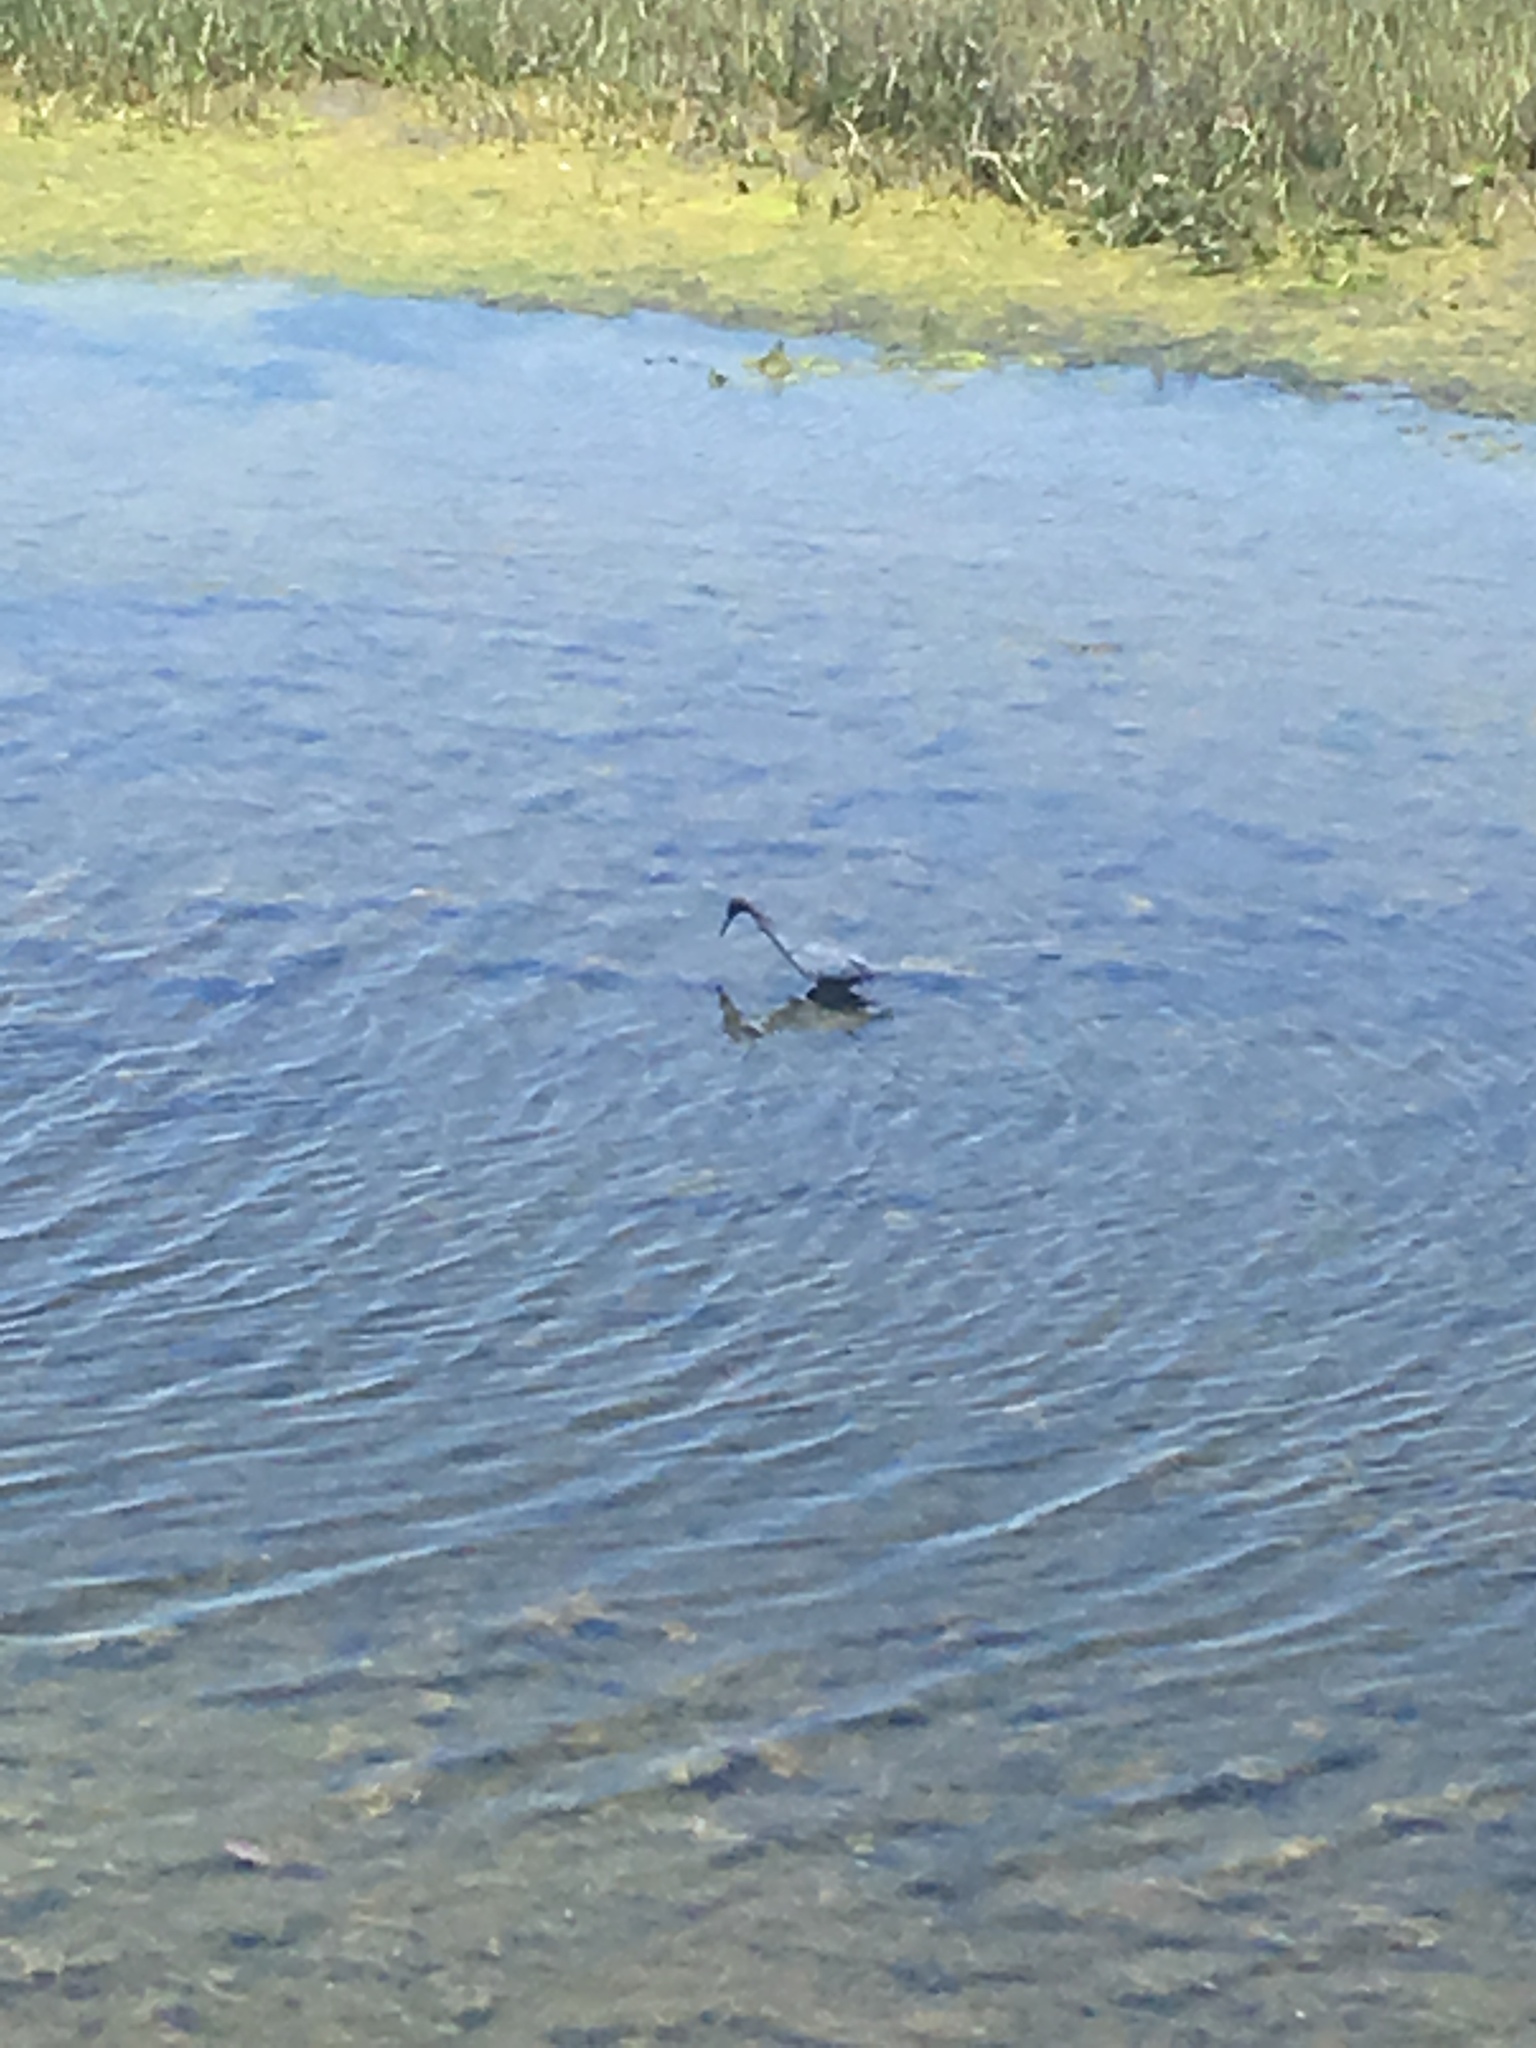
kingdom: Animalia
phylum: Chordata
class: Aves
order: Pelecaniformes
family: Ardeidae
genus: Egretta
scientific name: Egretta caerulea
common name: Little blue heron
